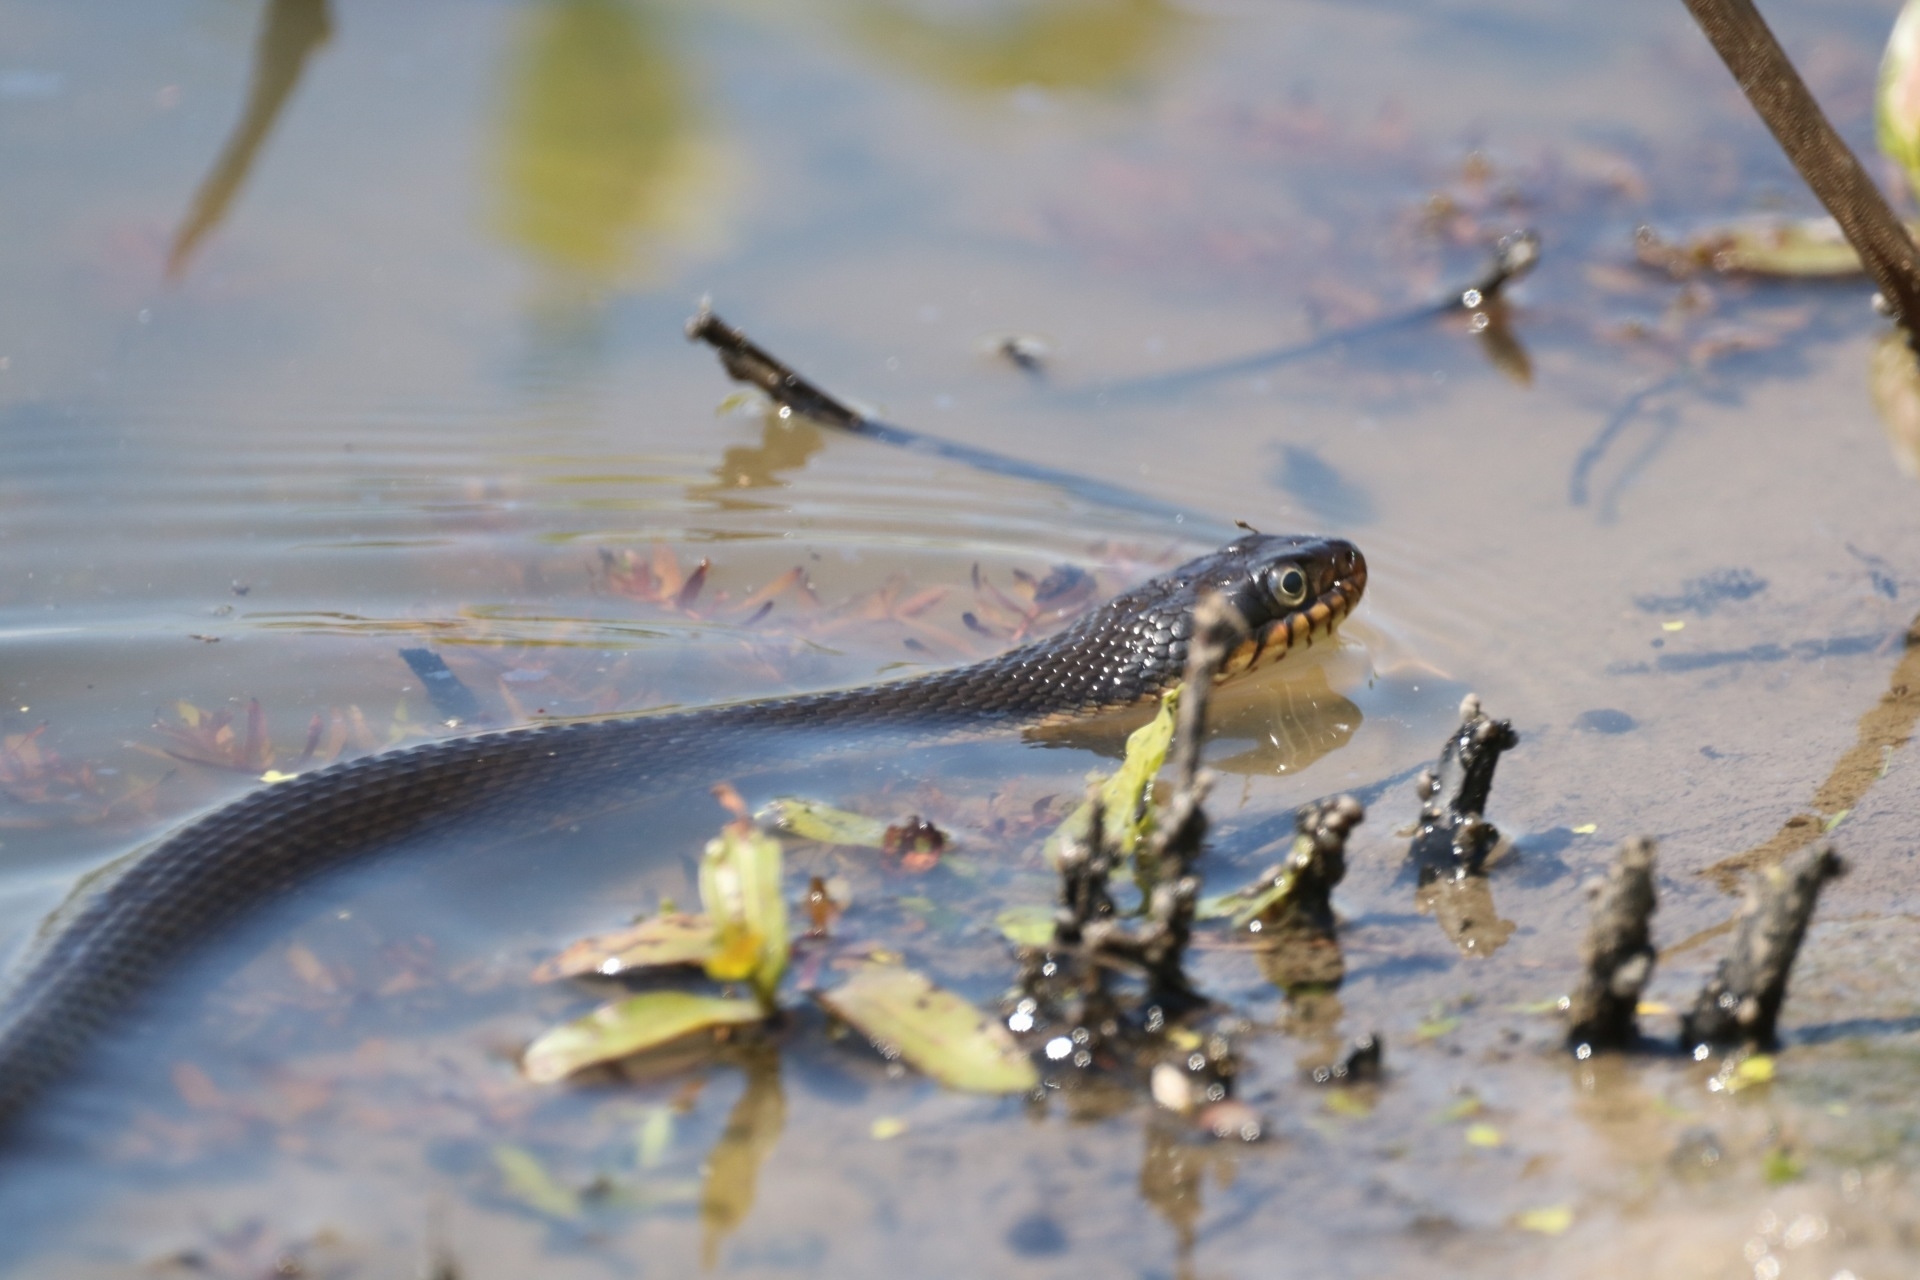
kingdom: Animalia
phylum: Chordata
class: Squamata
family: Colubridae
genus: Nerodia
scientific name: Nerodia erythrogaster
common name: Plainbelly water snake
